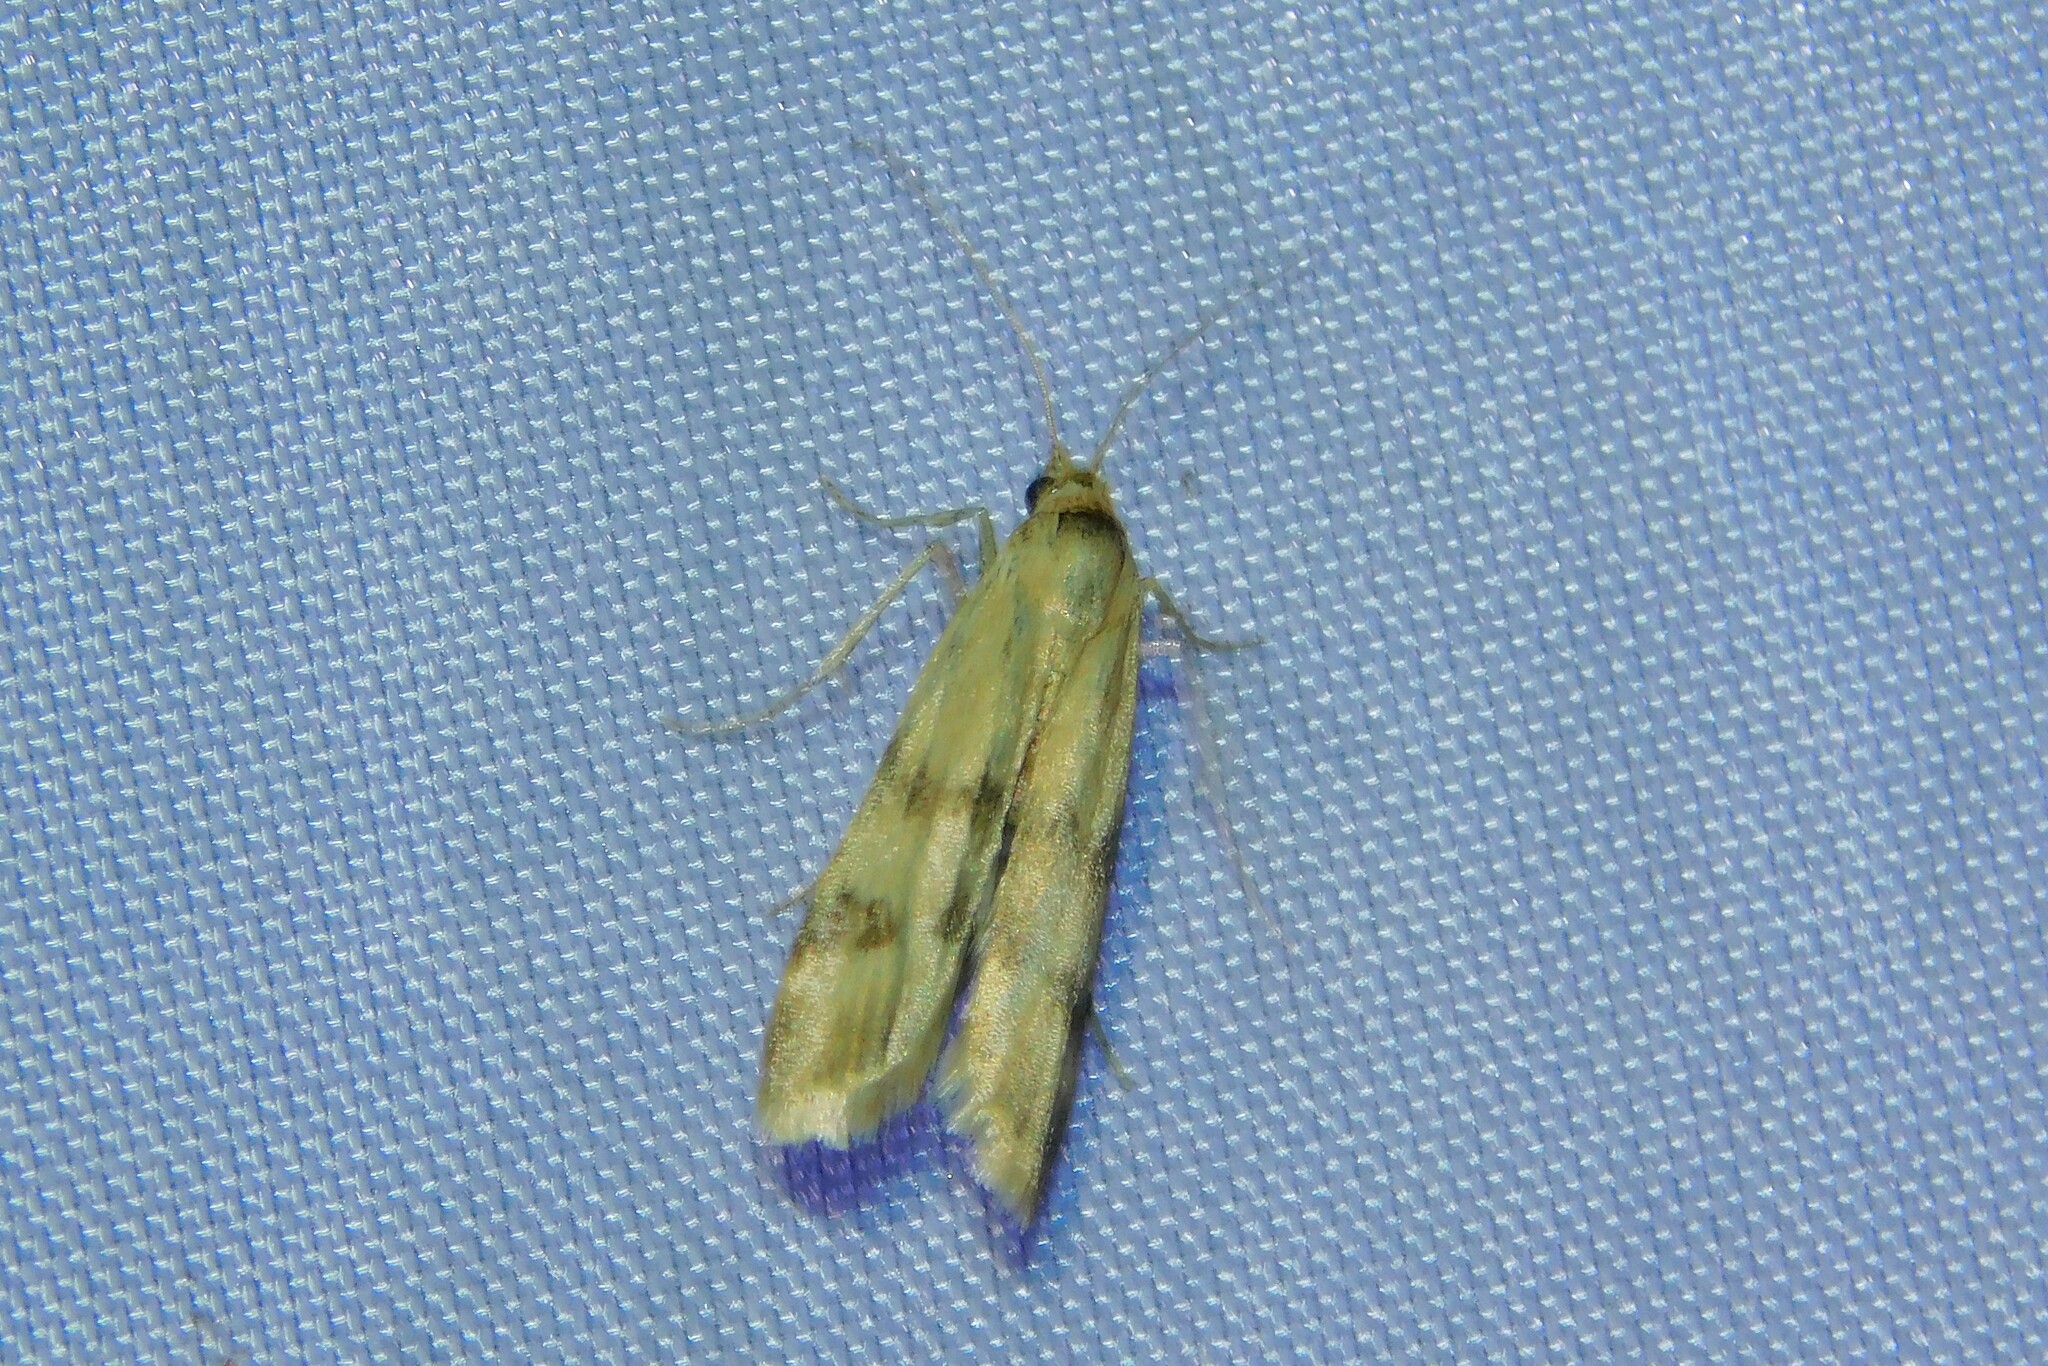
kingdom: Animalia
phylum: Arthropoda
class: Insecta
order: Lepidoptera
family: Pyralidae
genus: Homoeosoma
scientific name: Homoeosoma sinuella
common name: Twin-barred knot-horn
